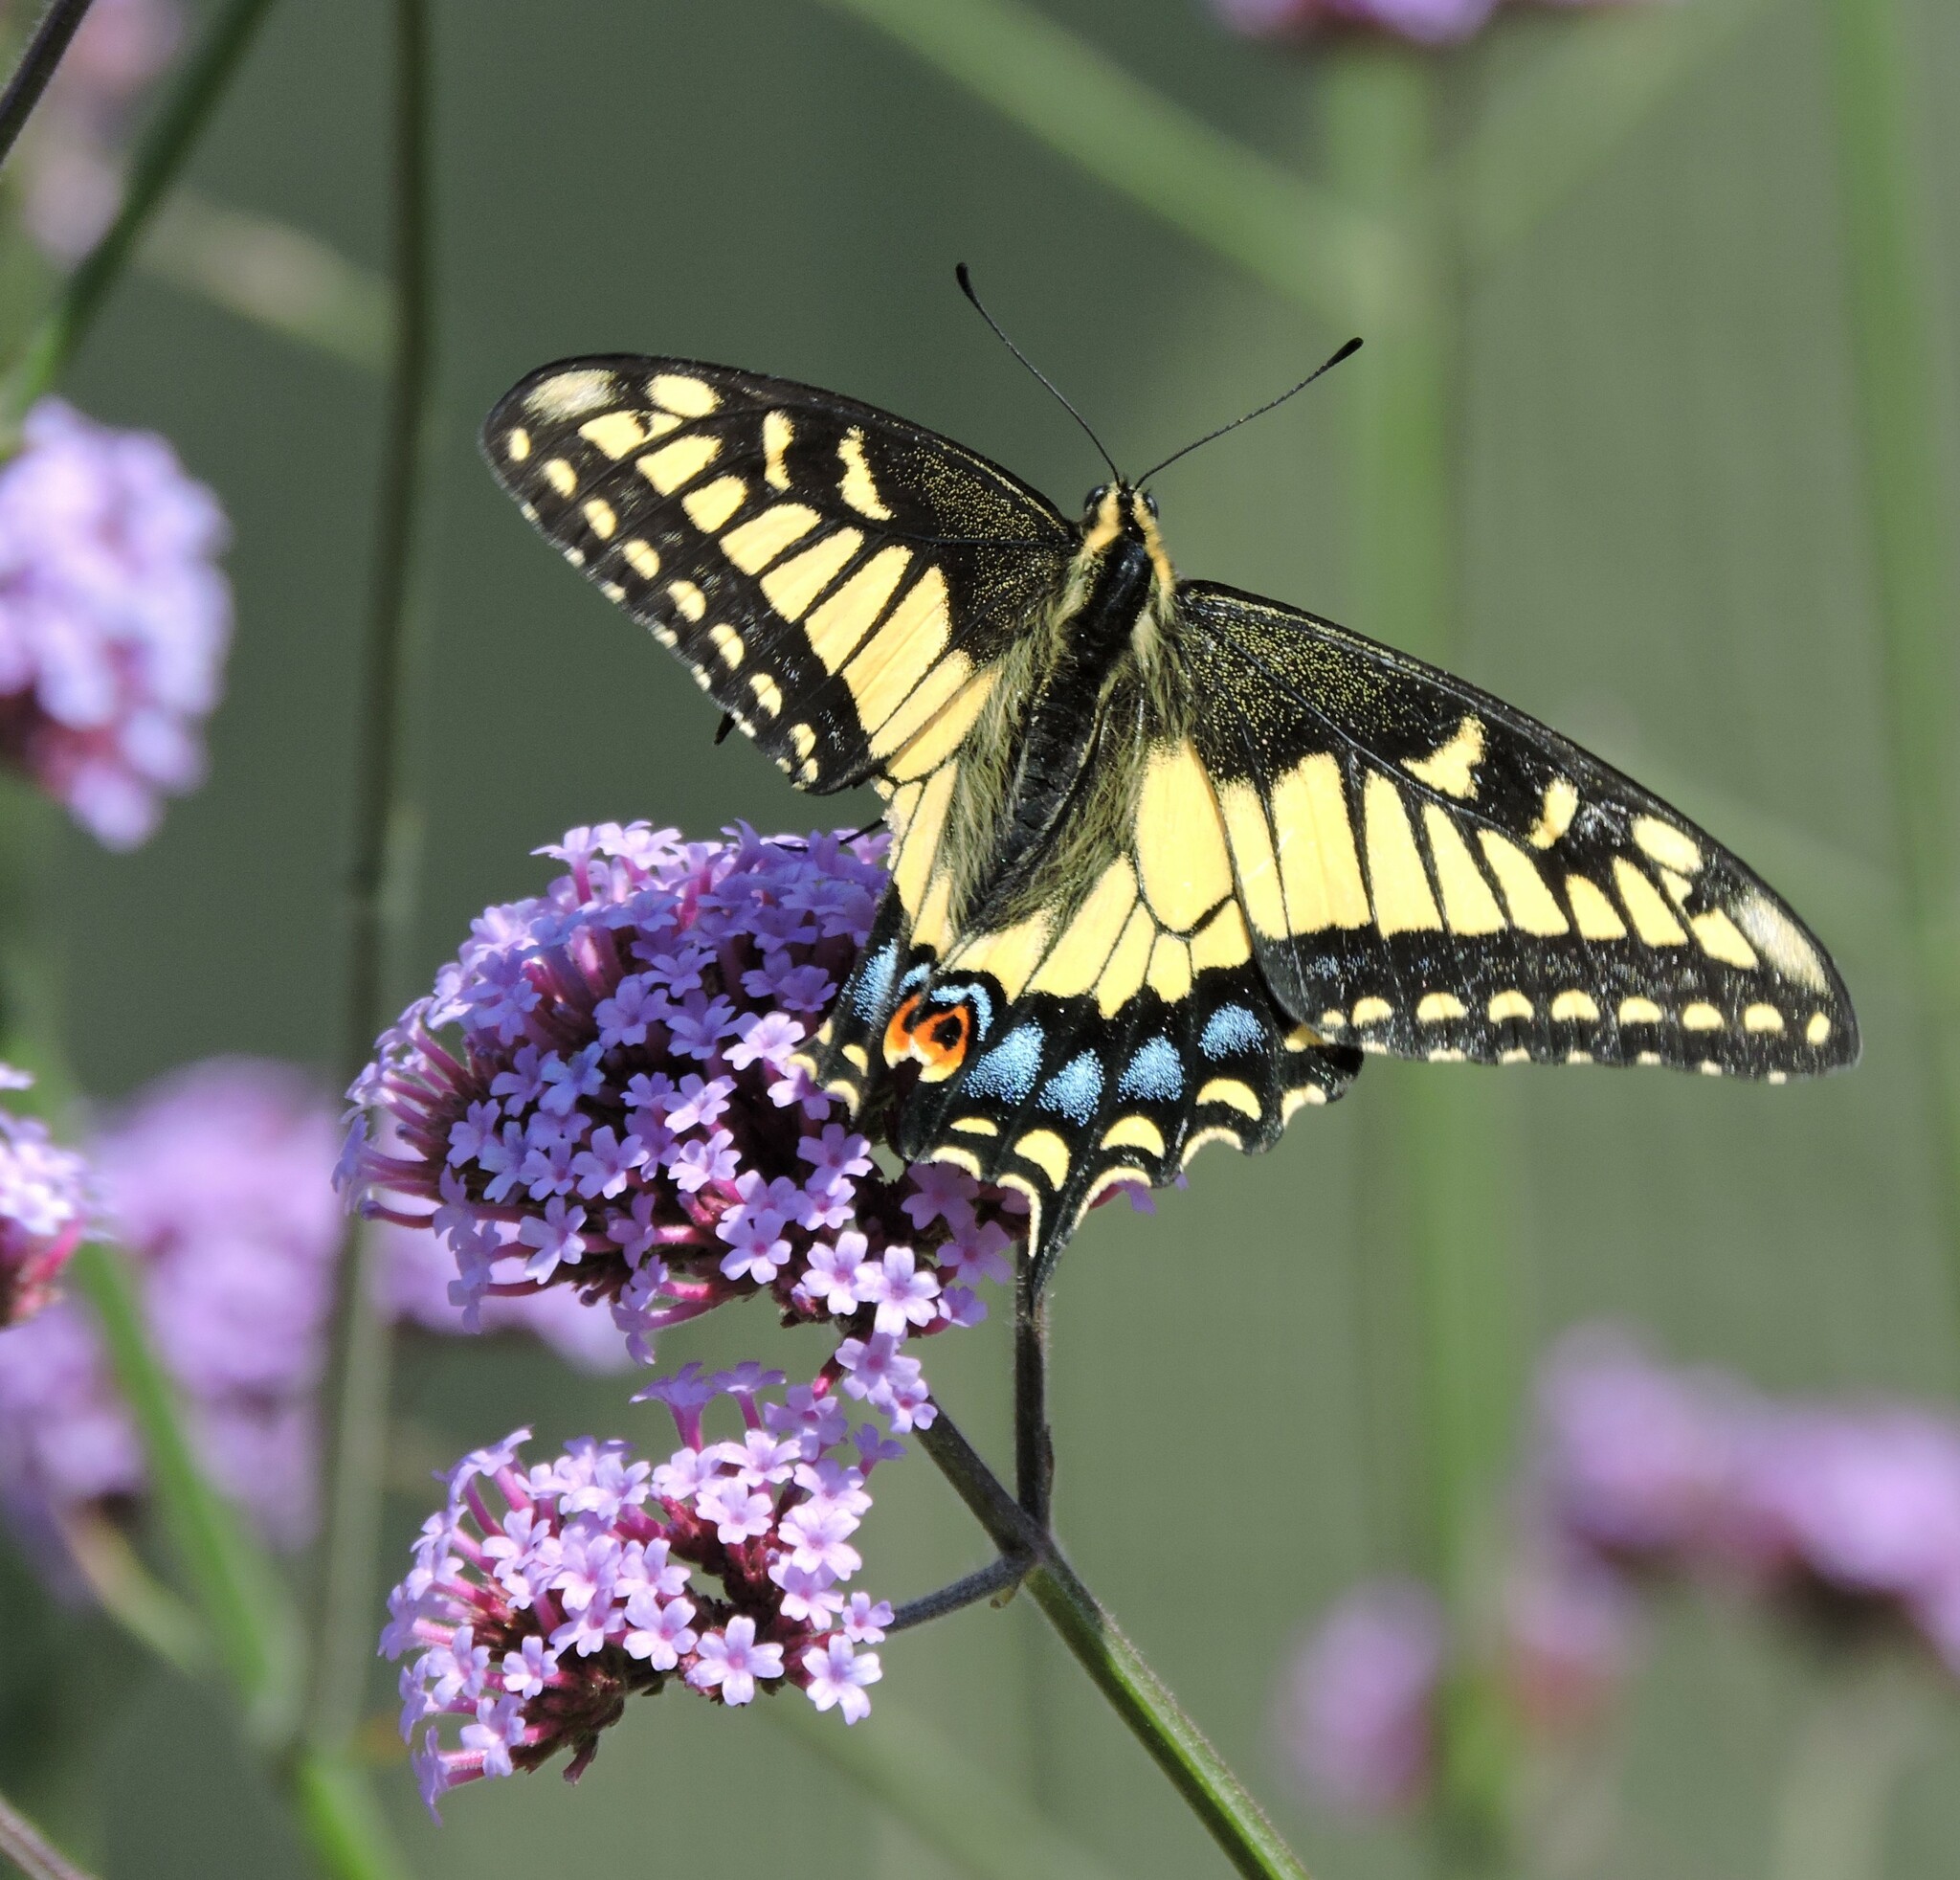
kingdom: Animalia
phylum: Arthropoda
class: Insecta
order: Lepidoptera
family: Papilionidae
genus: Papilio
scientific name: Papilio zelicaon
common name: Anise swallowtail
